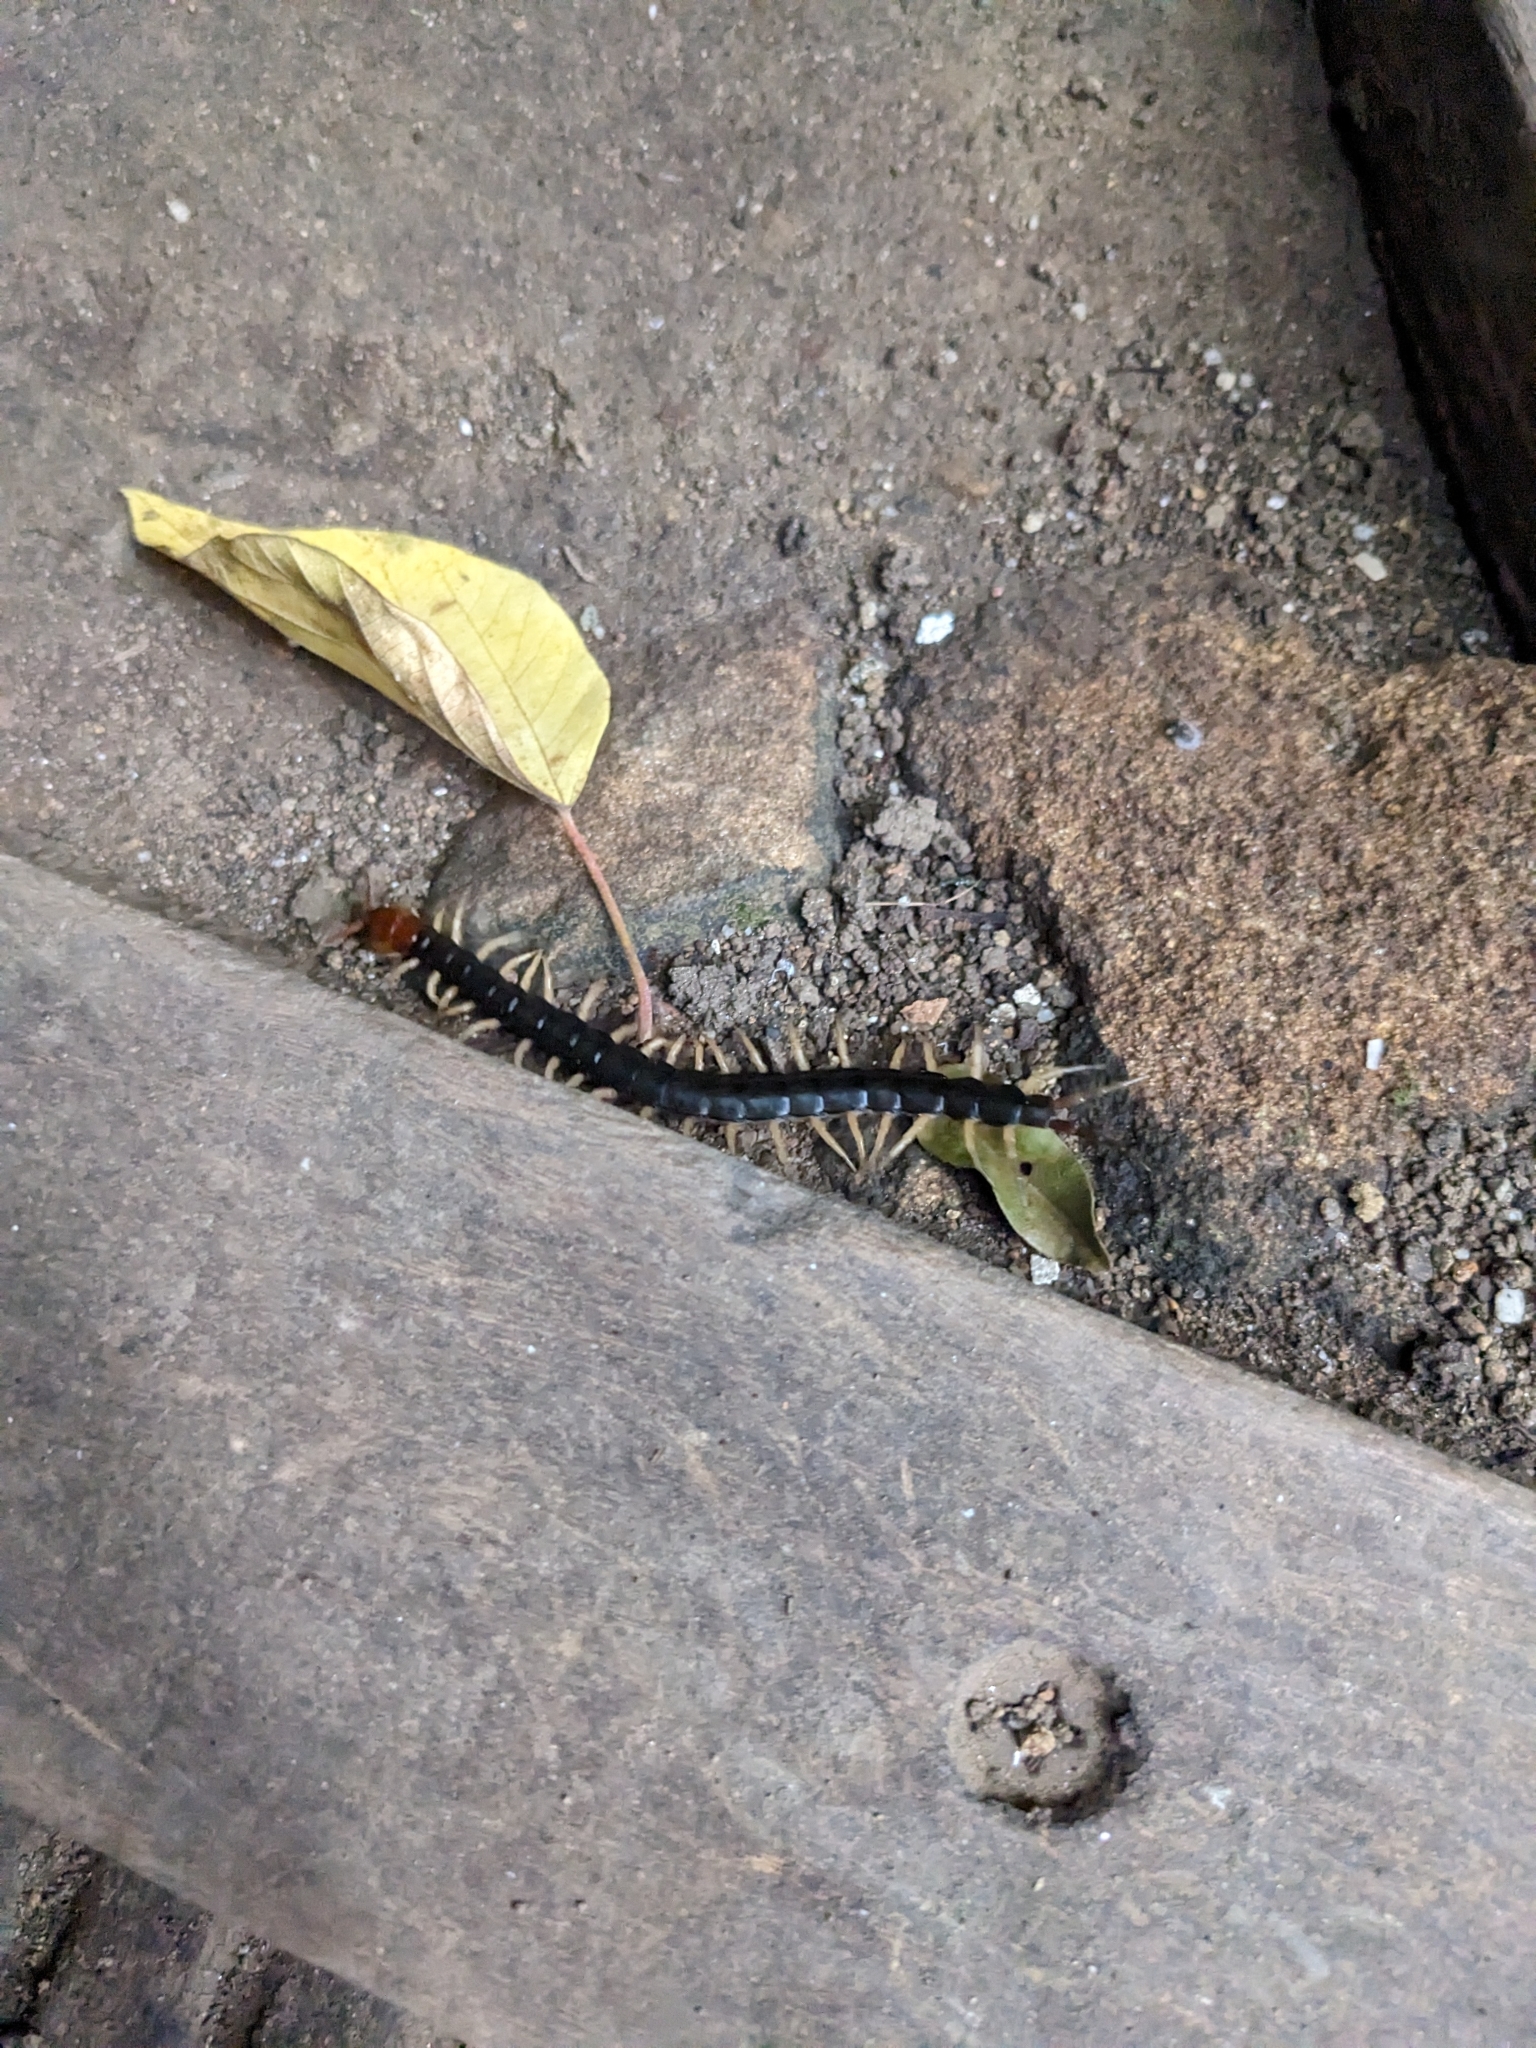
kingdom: Animalia
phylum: Arthropoda
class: Chilopoda
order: Scolopendromorpha
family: Scolopendridae
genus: Scolopendra
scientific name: Scolopendra mutilans
